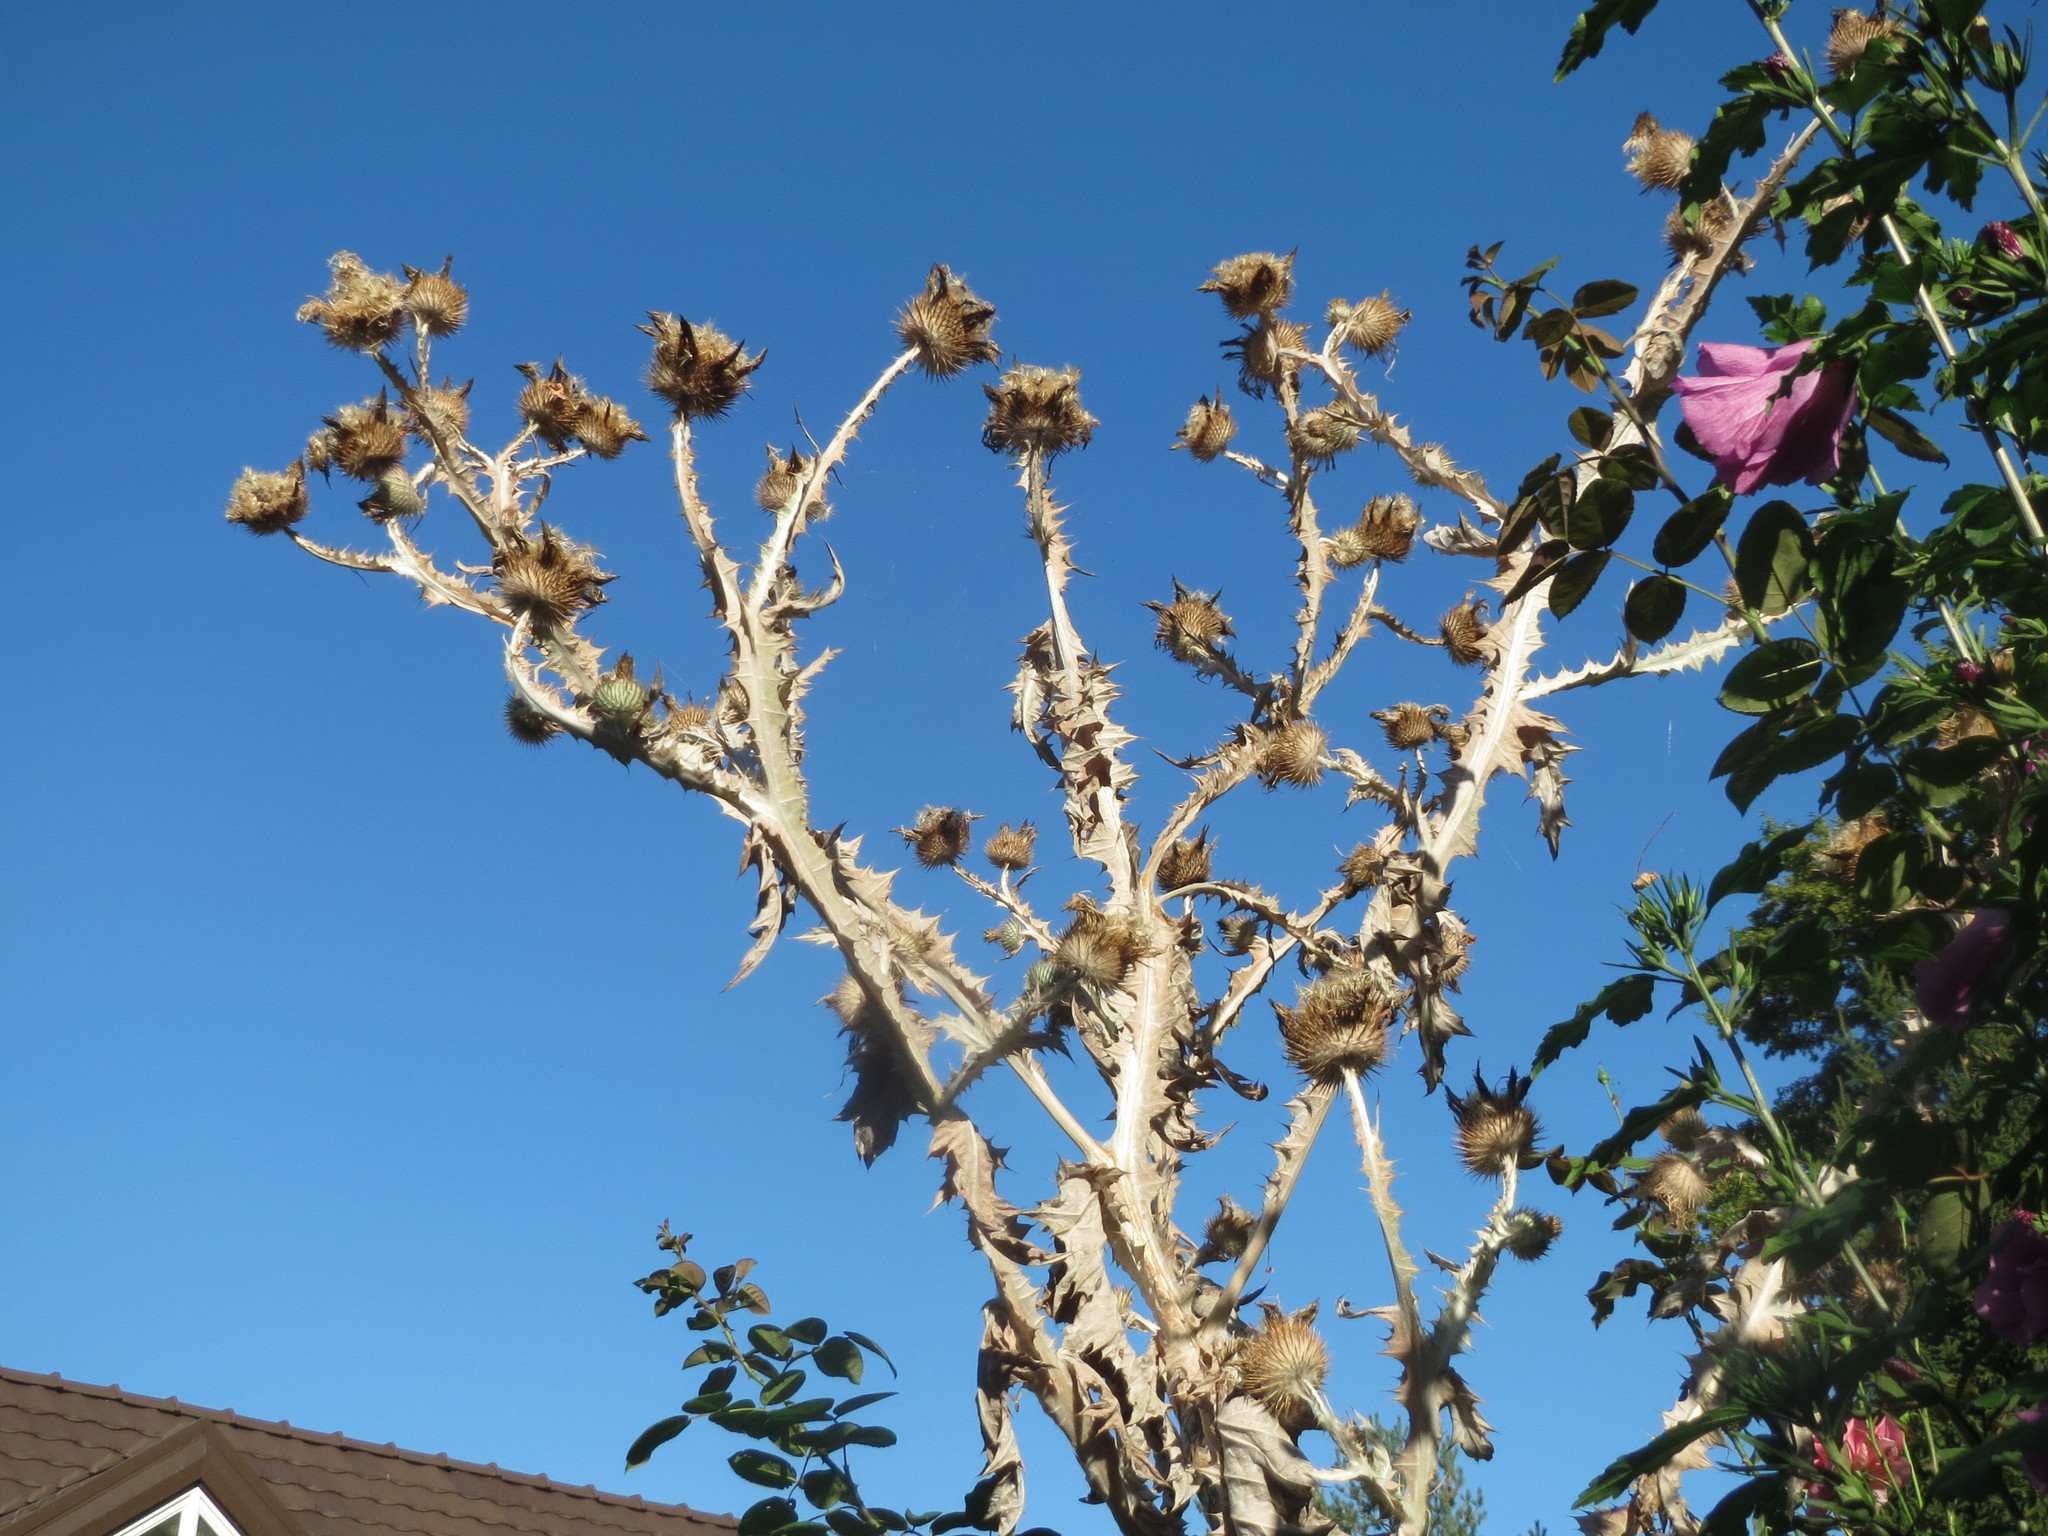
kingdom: Plantae
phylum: Tracheophyta
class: Magnoliopsida
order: Asterales
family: Asteraceae
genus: Onopordum
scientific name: Onopordum acanthium
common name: Scotch thistle
